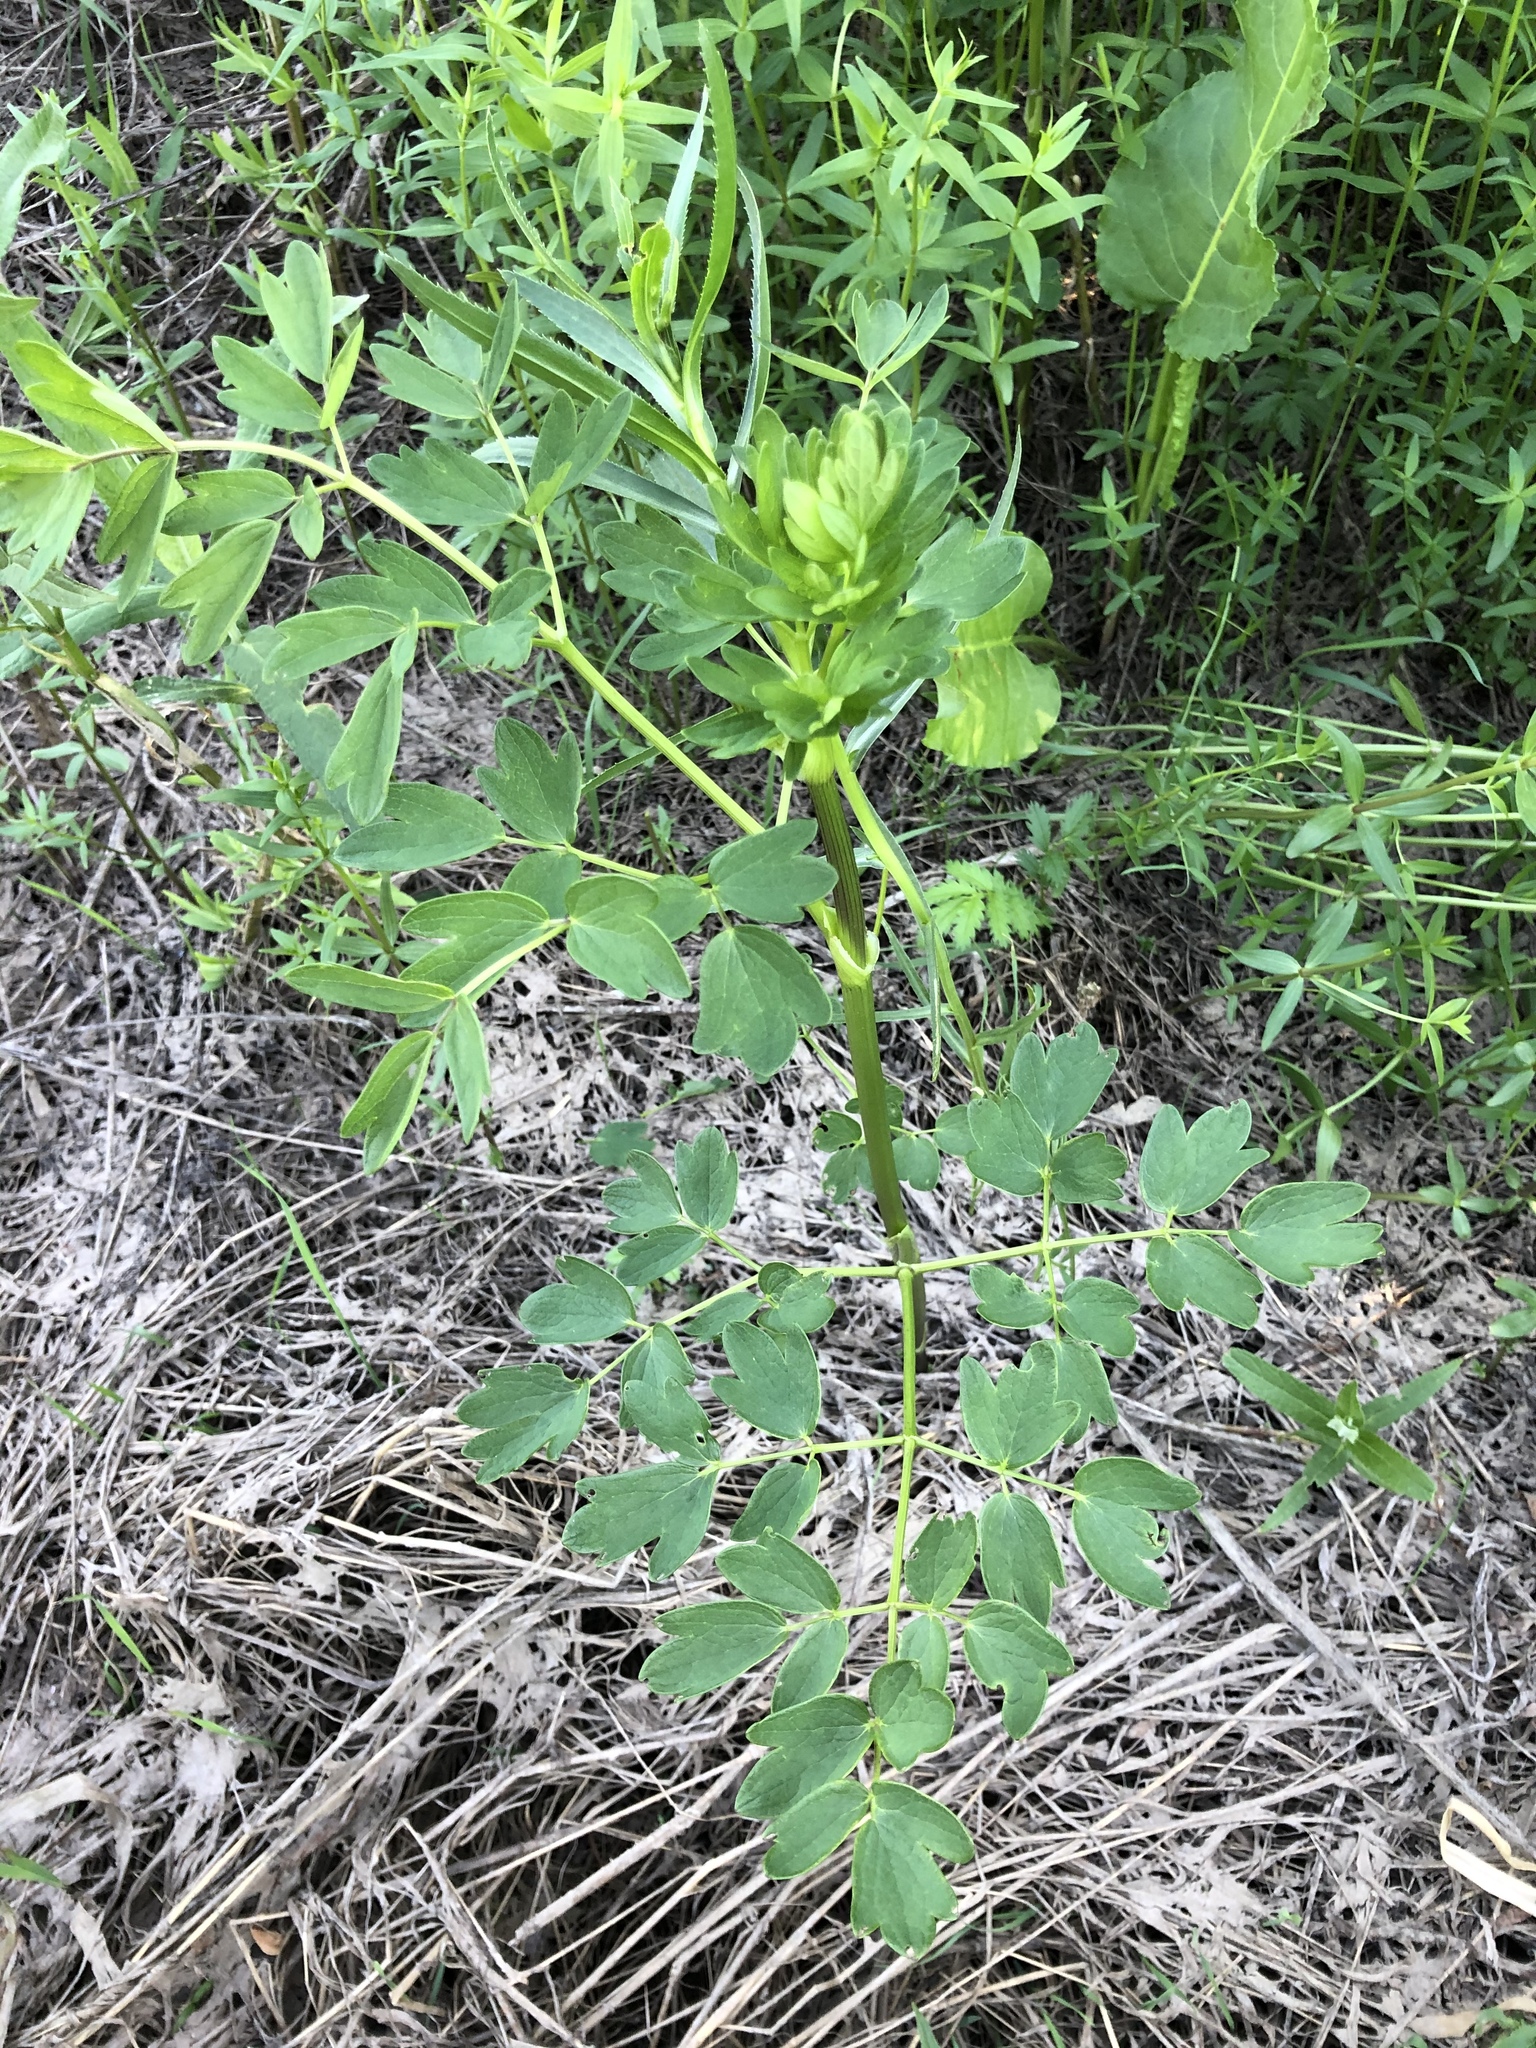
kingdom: Plantae
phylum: Tracheophyta
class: Magnoliopsida
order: Ranunculales
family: Ranunculaceae
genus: Thalictrum
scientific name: Thalictrum flavum
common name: Common meadow-rue
